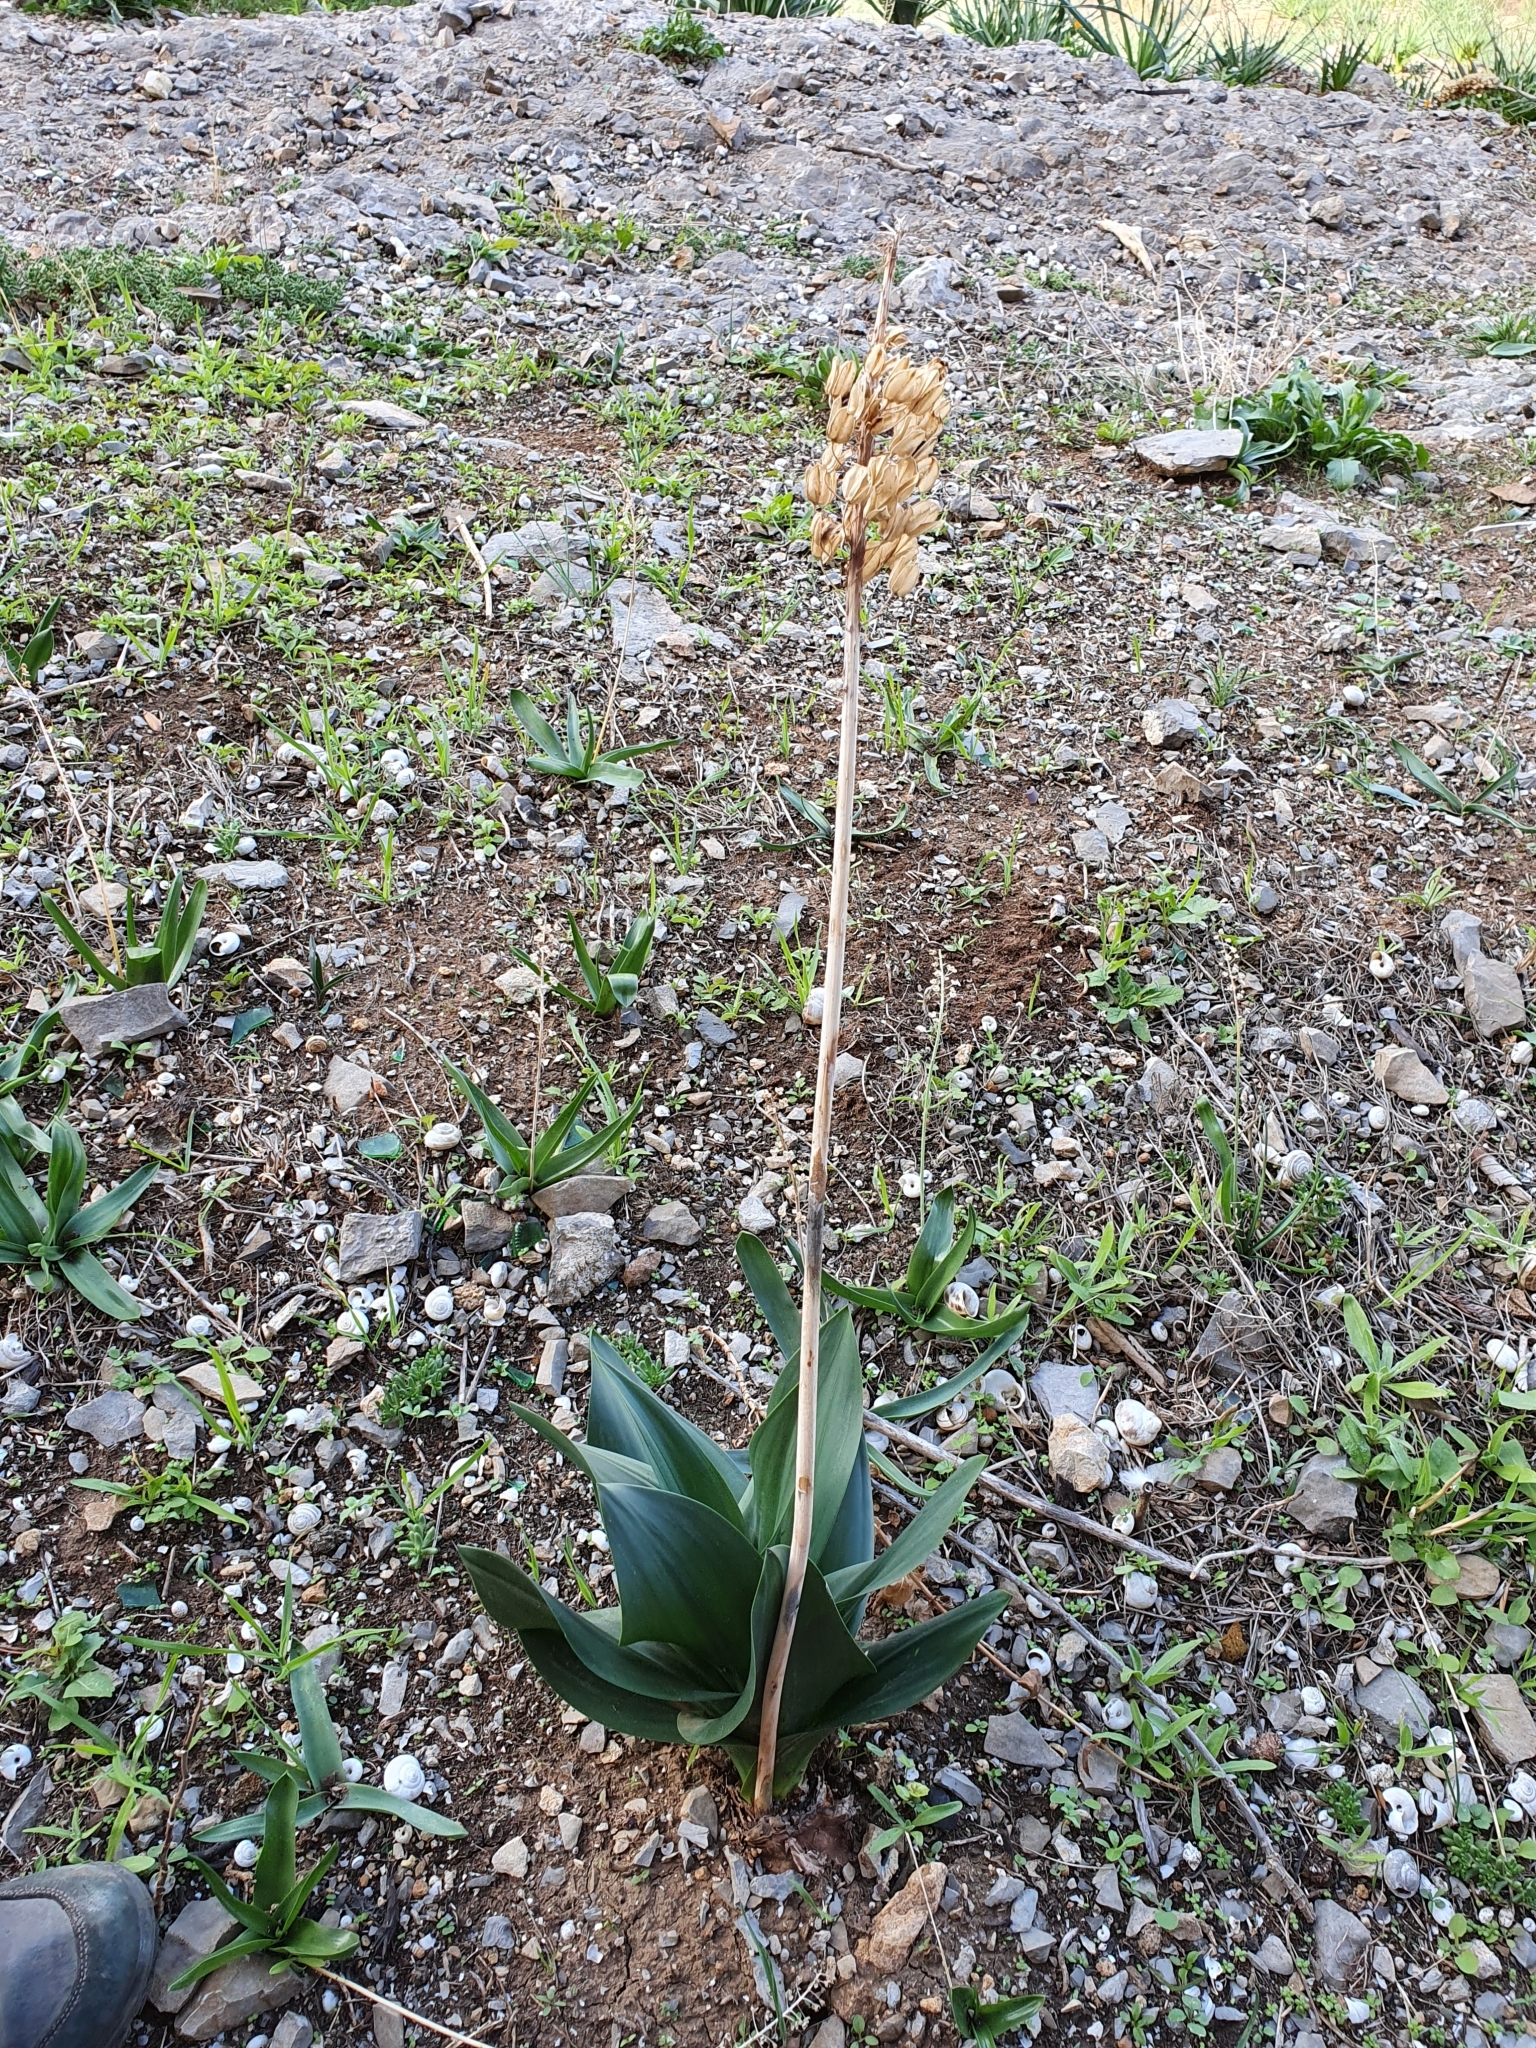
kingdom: Plantae
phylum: Tracheophyta
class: Liliopsida
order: Asparagales
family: Asparagaceae
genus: Drimia
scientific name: Drimia numidica
